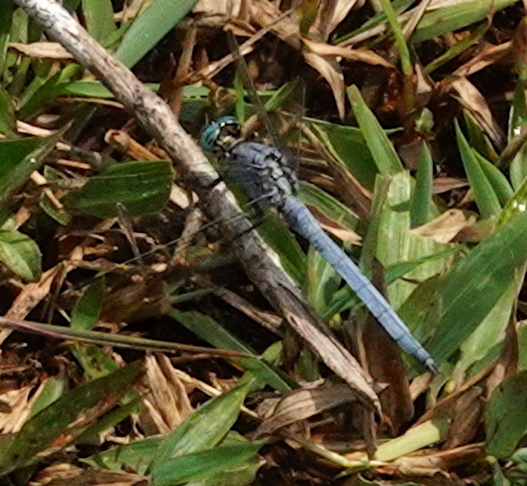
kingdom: Animalia
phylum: Arthropoda
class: Insecta
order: Odonata
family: Libellulidae
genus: Orthetrum
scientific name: Orthetrum luzonicum
